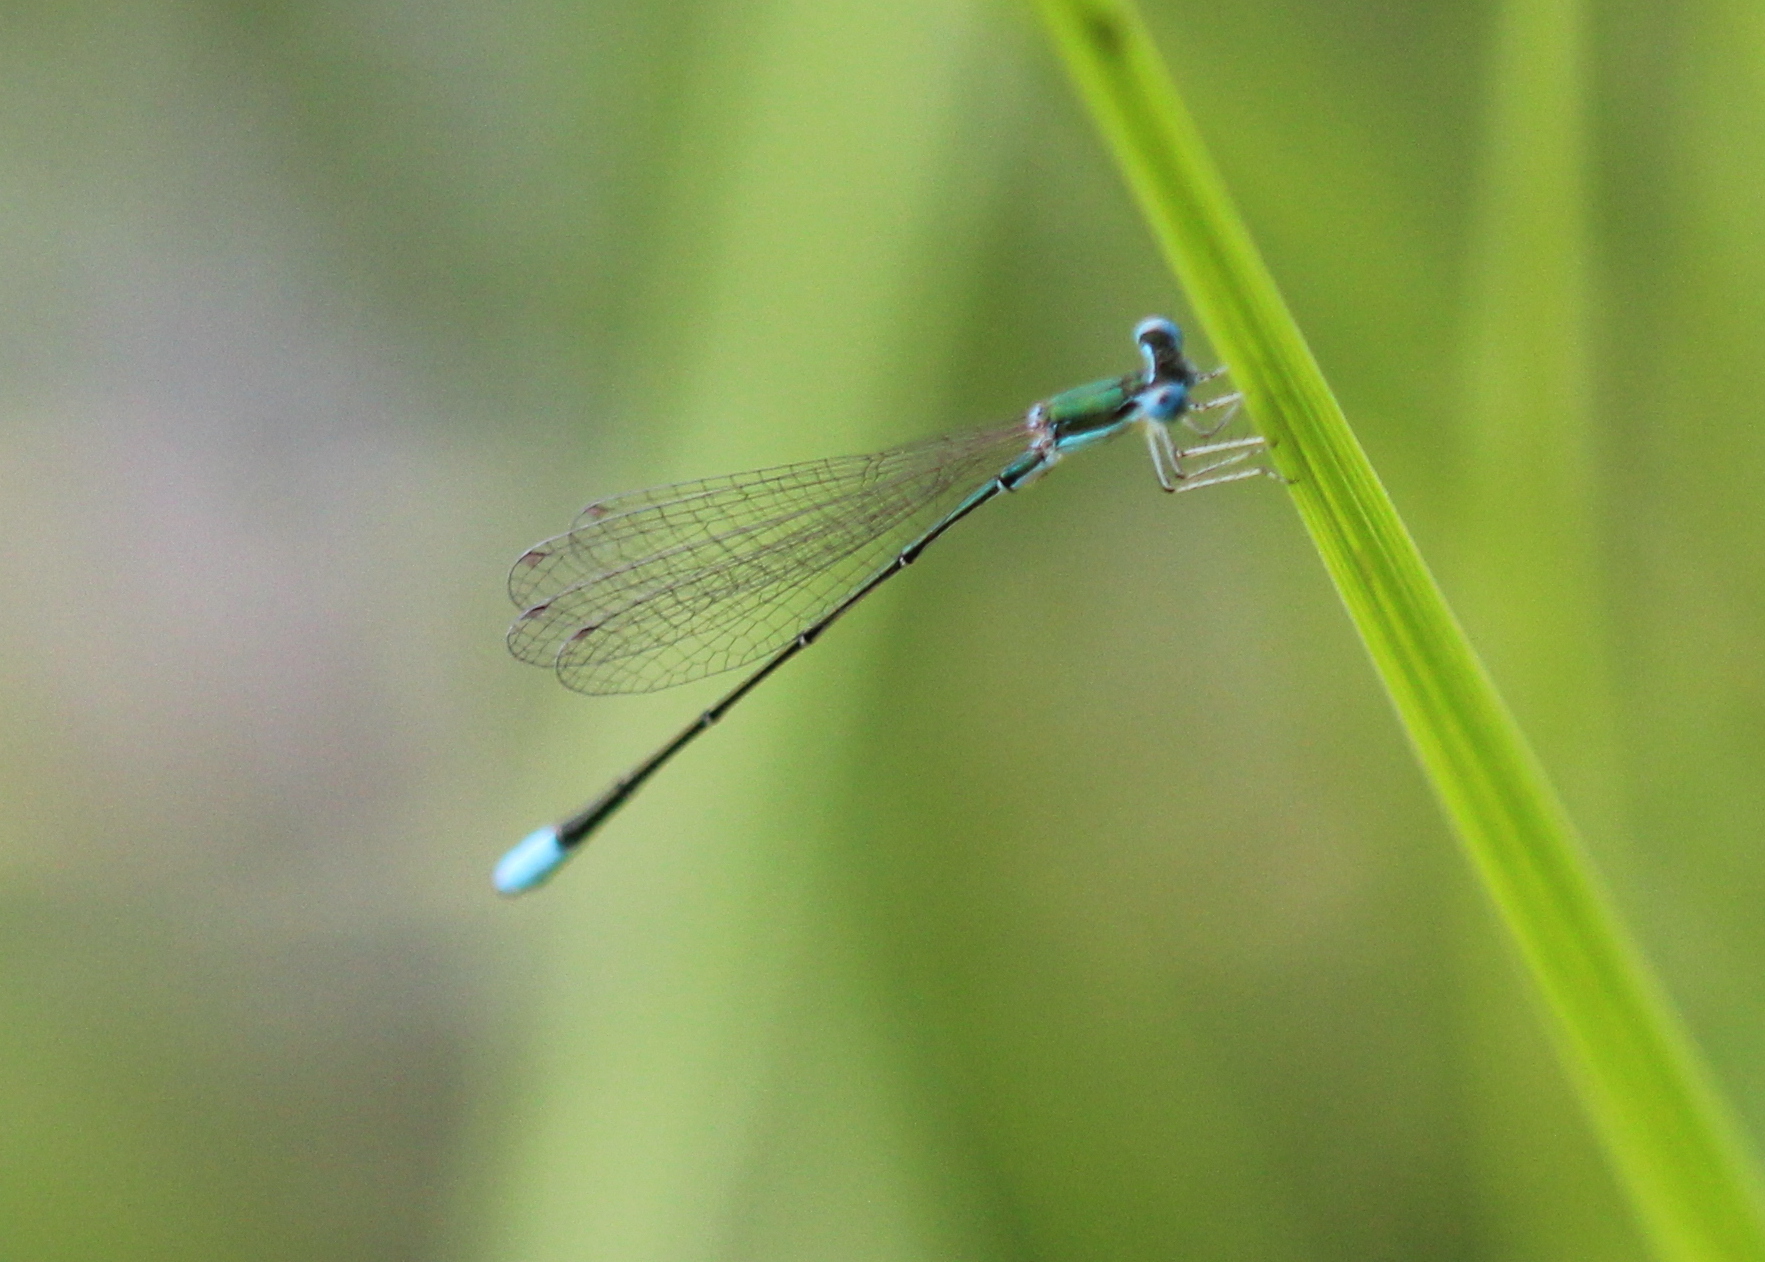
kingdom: Animalia
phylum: Arthropoda
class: Insecta
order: Odonata
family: Coenagrionidae
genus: Nehalennia
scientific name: Nehalennia gracilis
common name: Sphagnum sprite
